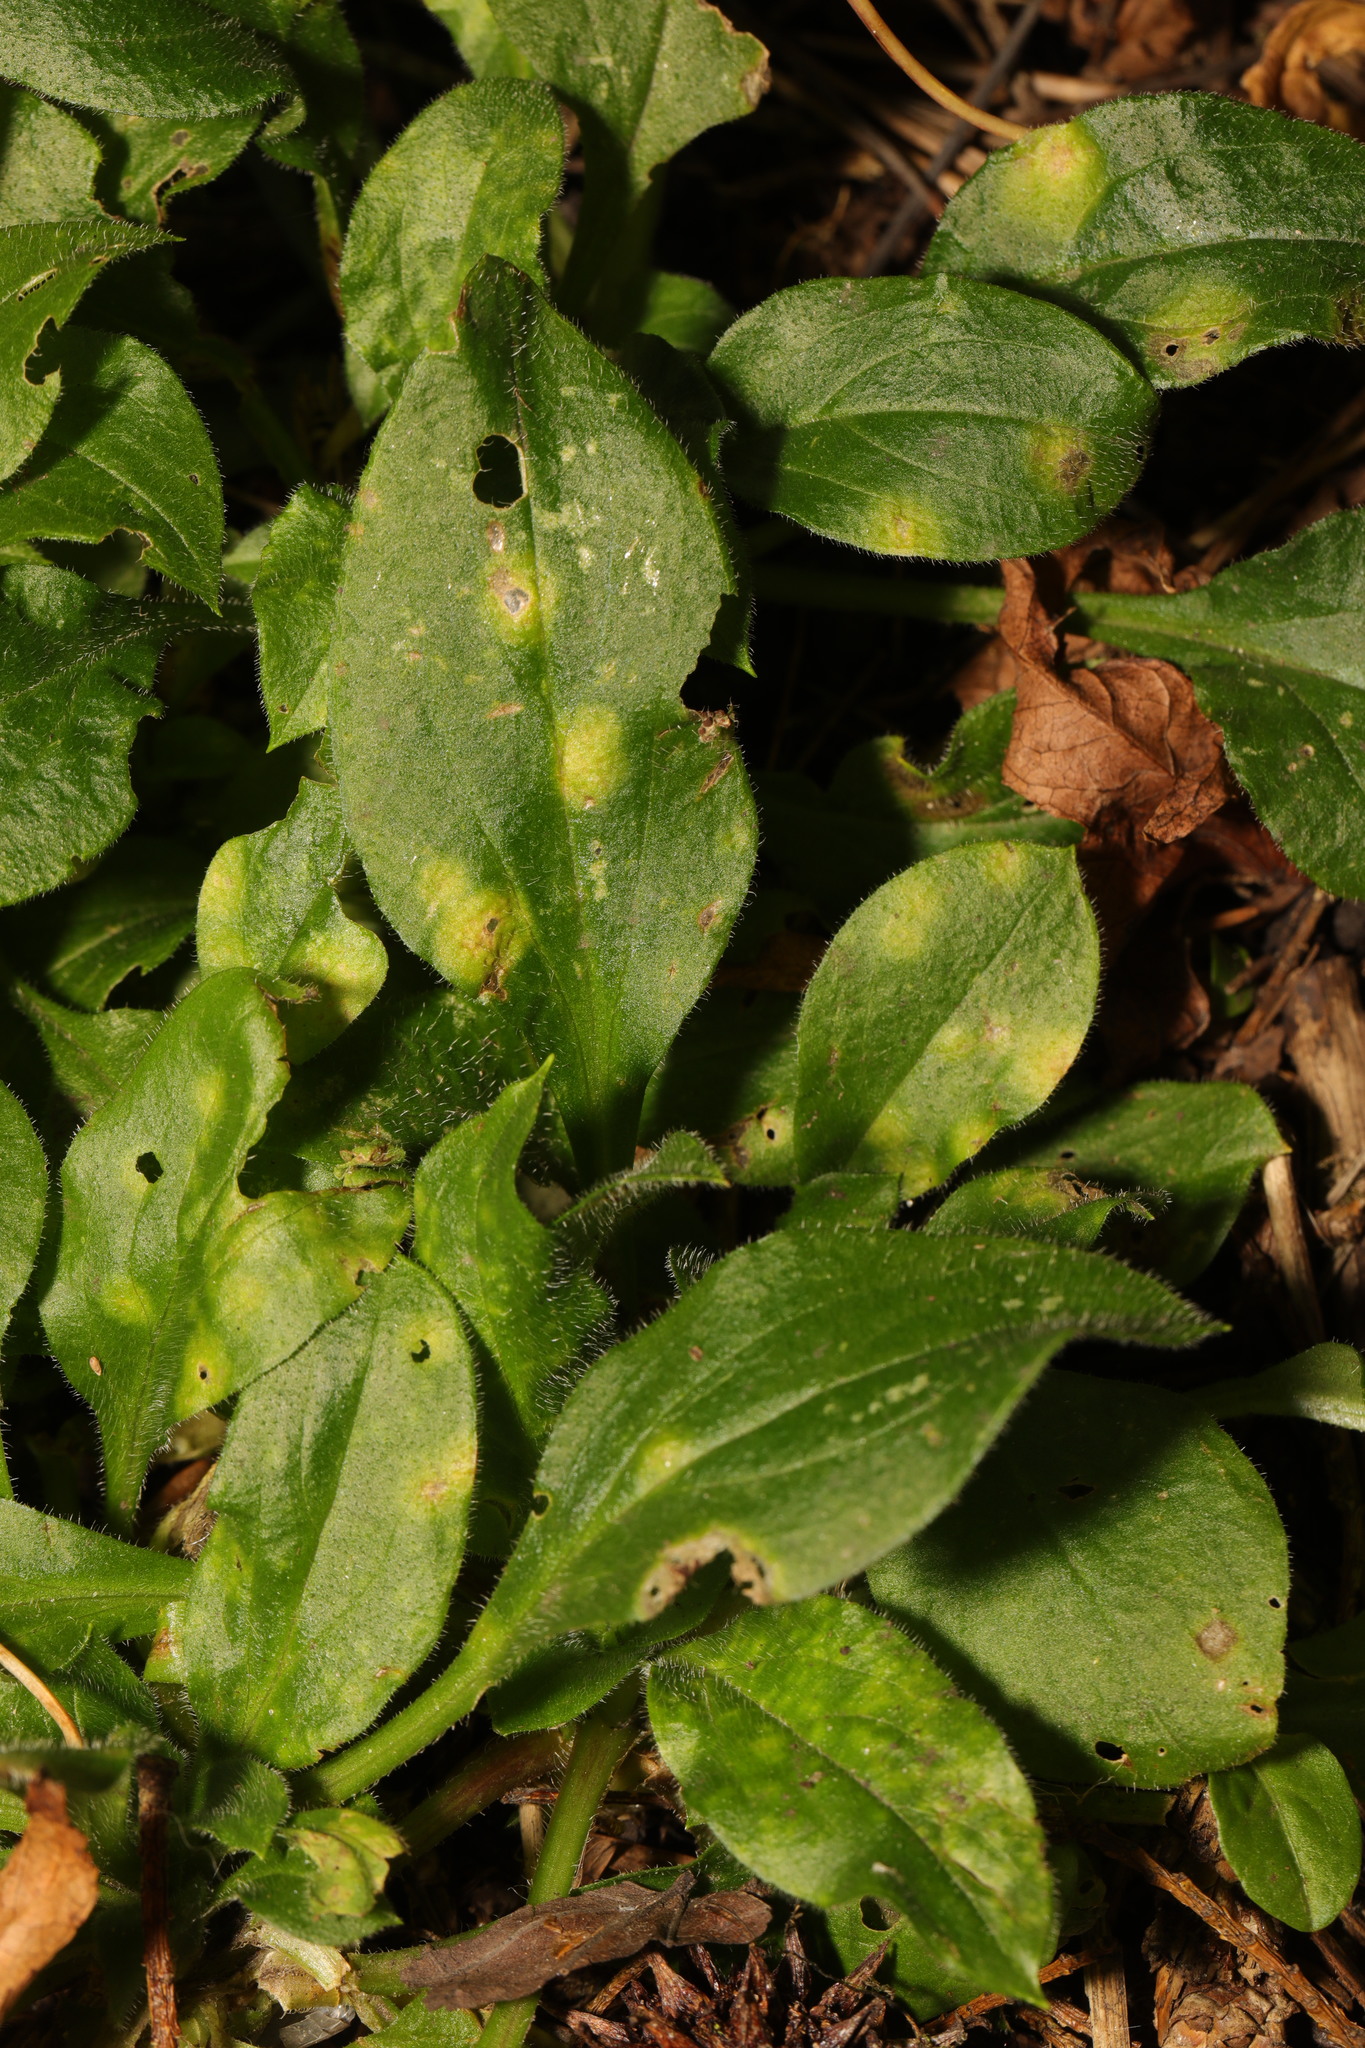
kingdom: Plantae
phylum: Tracheophyta
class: Magnoliopsida
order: Caryophyllales
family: Caryophyllaceae
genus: Silene
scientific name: Silene dioica
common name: Red campion
